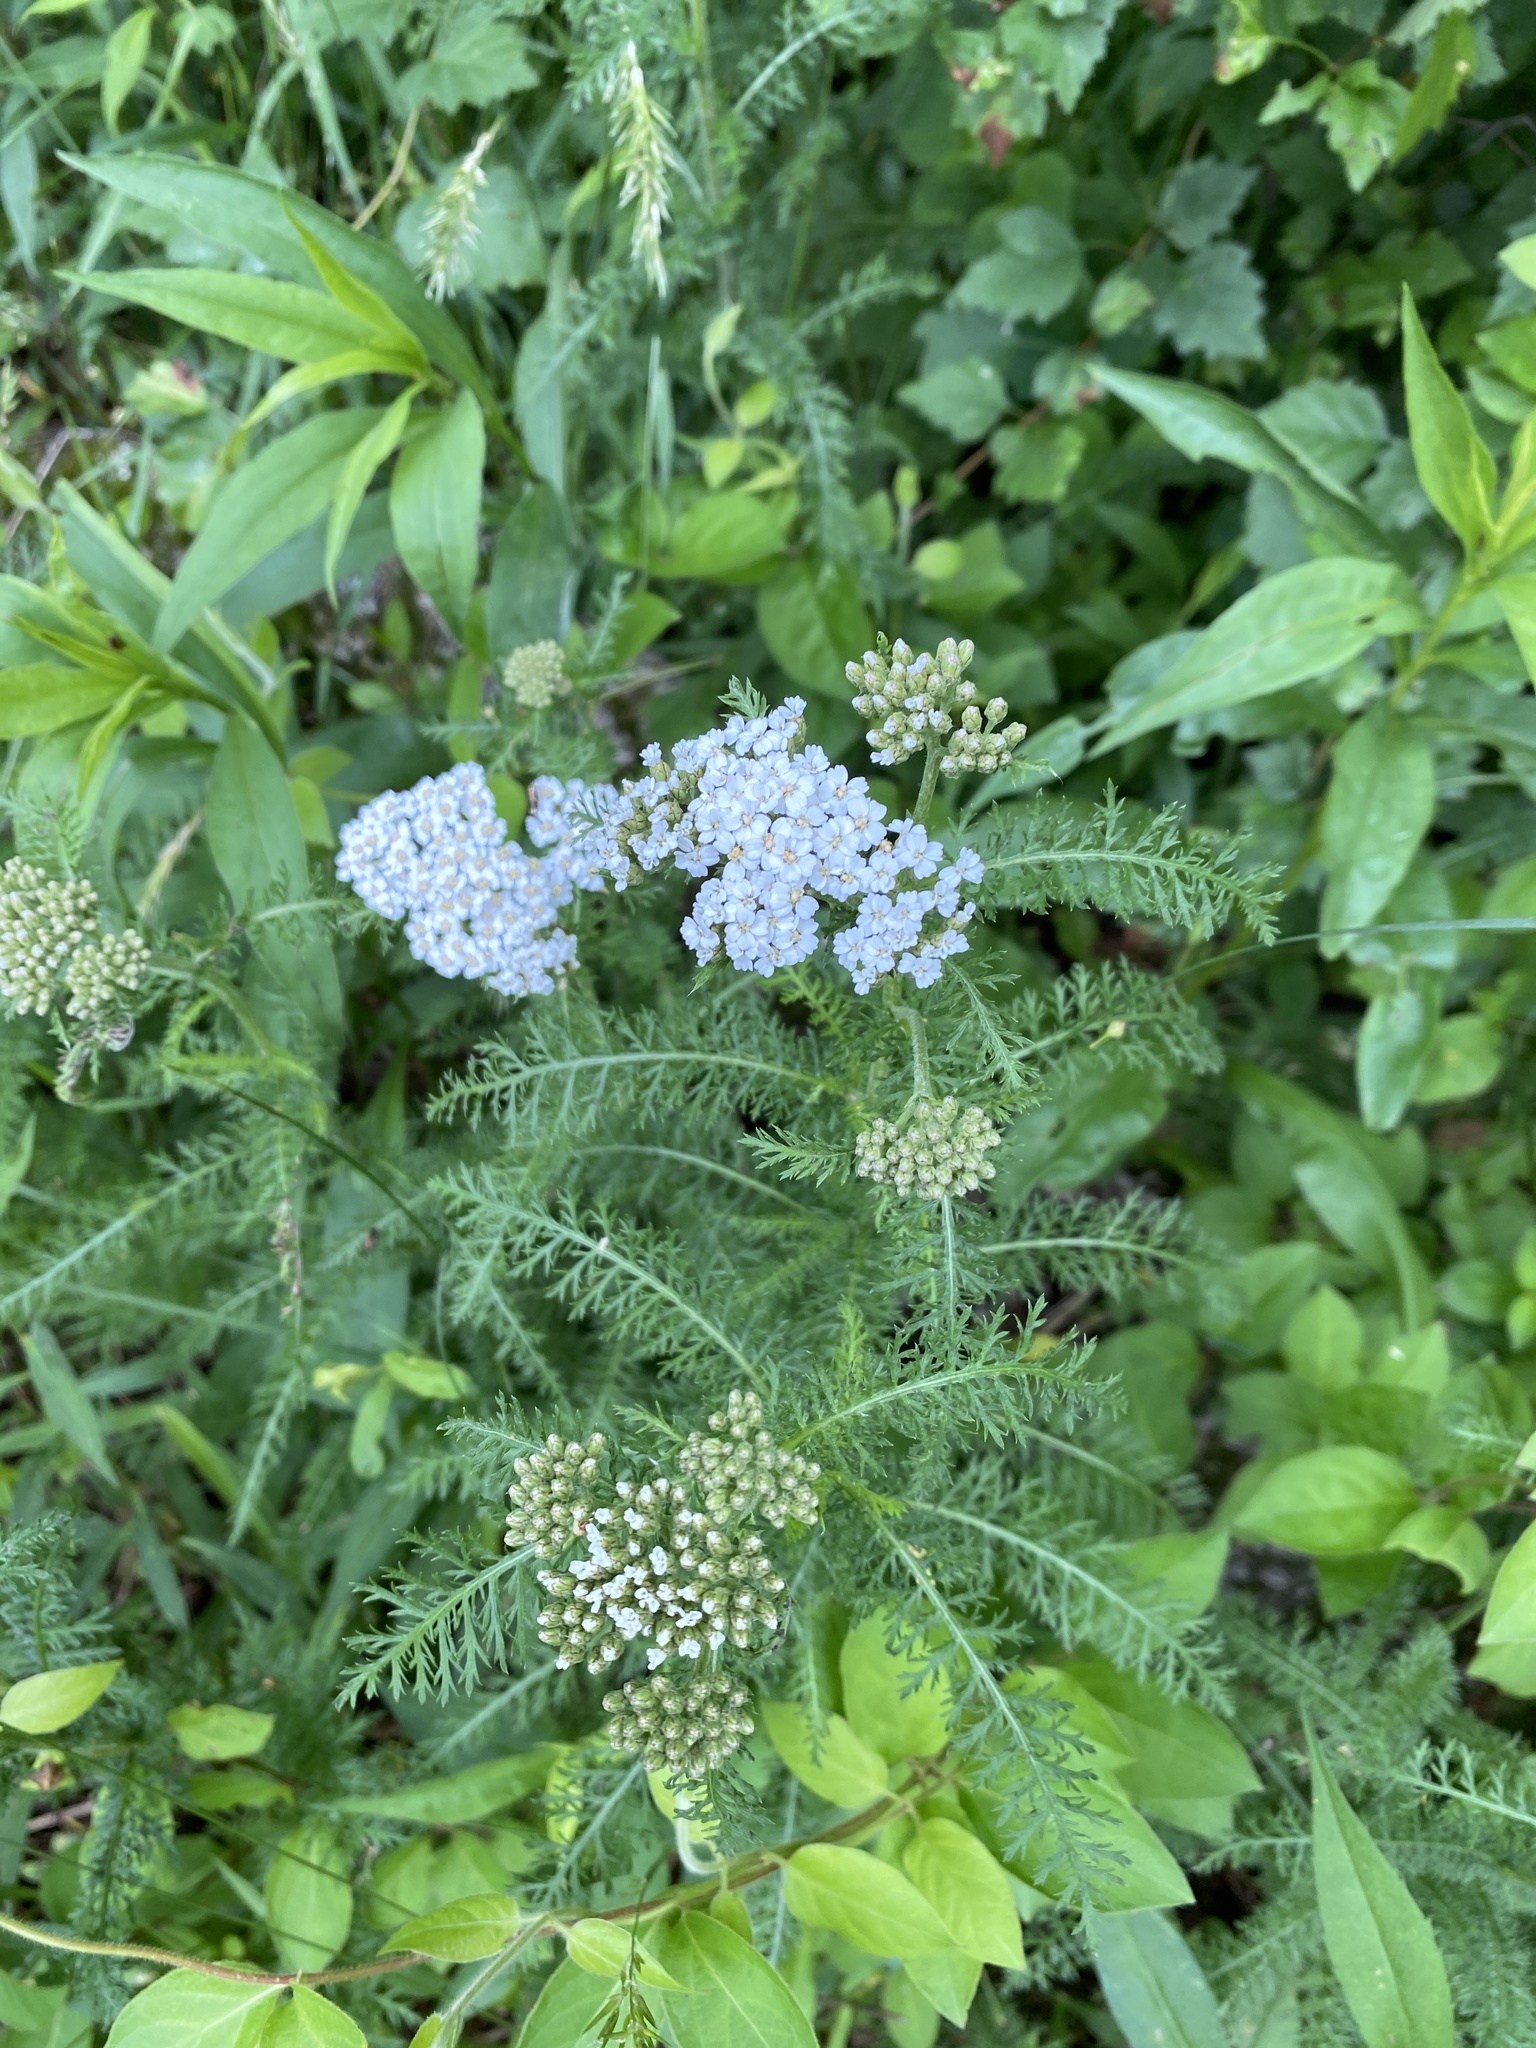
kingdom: Plantae
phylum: Tracheophyta
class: Magnoliopsida
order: Asterales
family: Asteraceae
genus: Achillea
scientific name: Achillea millefolium
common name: Yarrow
